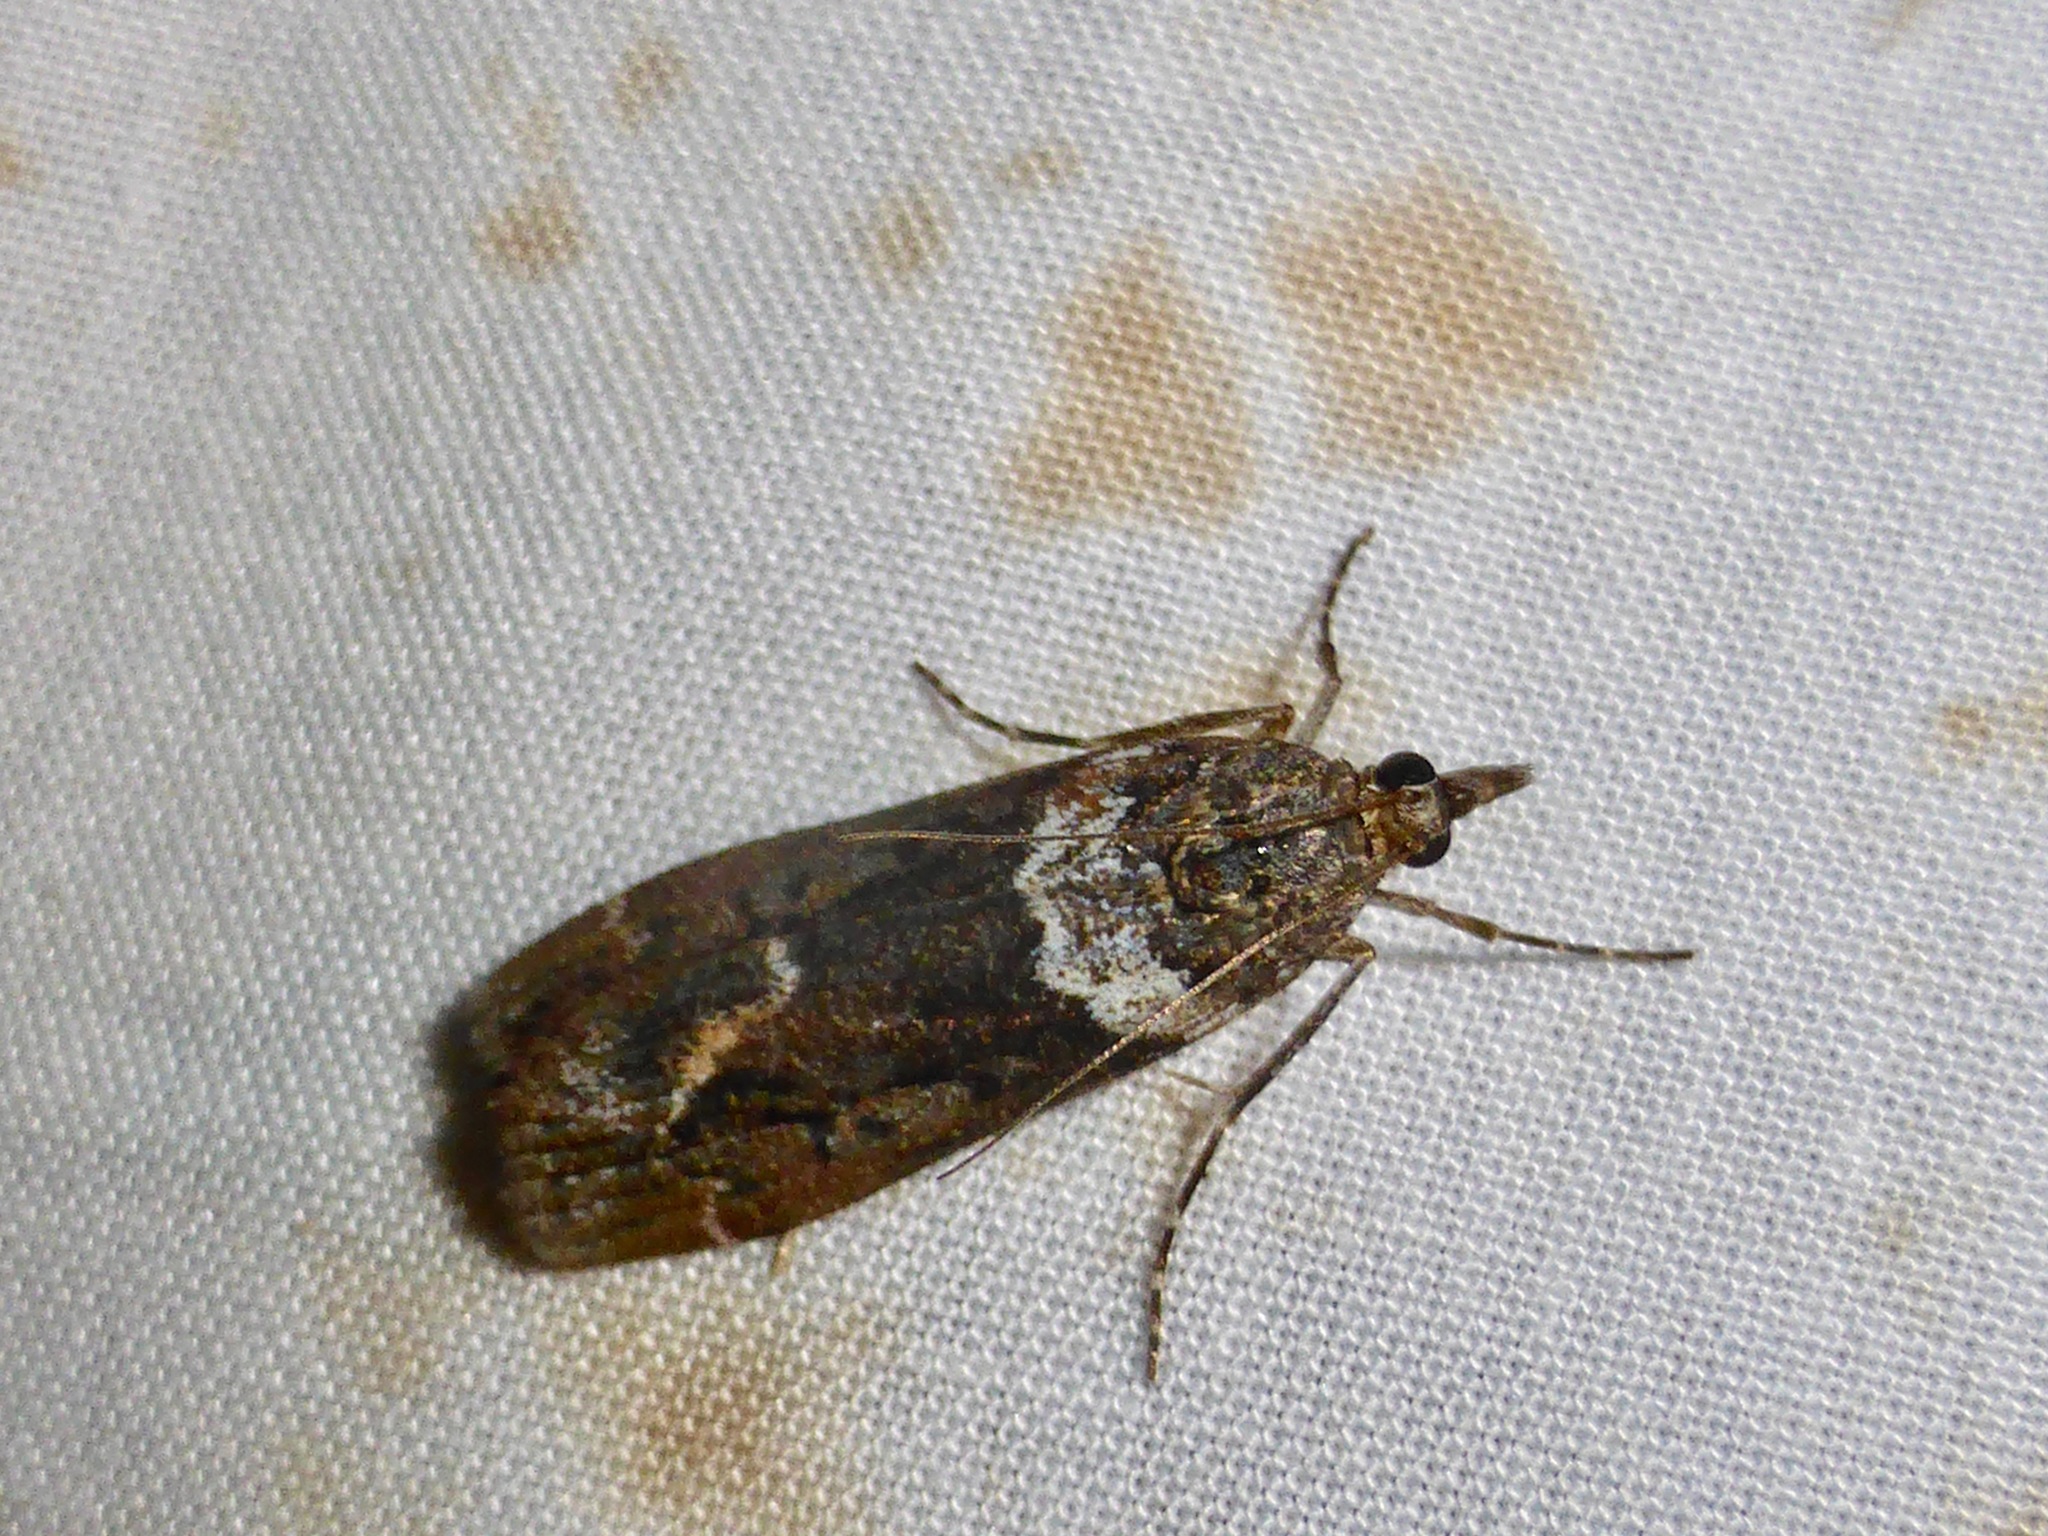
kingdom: Animalia
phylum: Arthropoda
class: Insecta
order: Lepidoptera
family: Crambidae
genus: Eudonia
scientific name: Eudonia submarginalis
